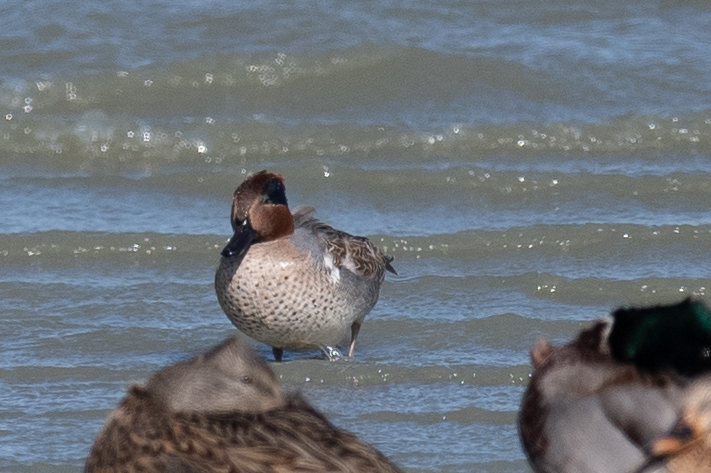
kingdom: Animalia
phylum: Chordata
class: Aves
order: Anseriformes
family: Anatidae
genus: Anas
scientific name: Anas crecca
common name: Eurasian teal
